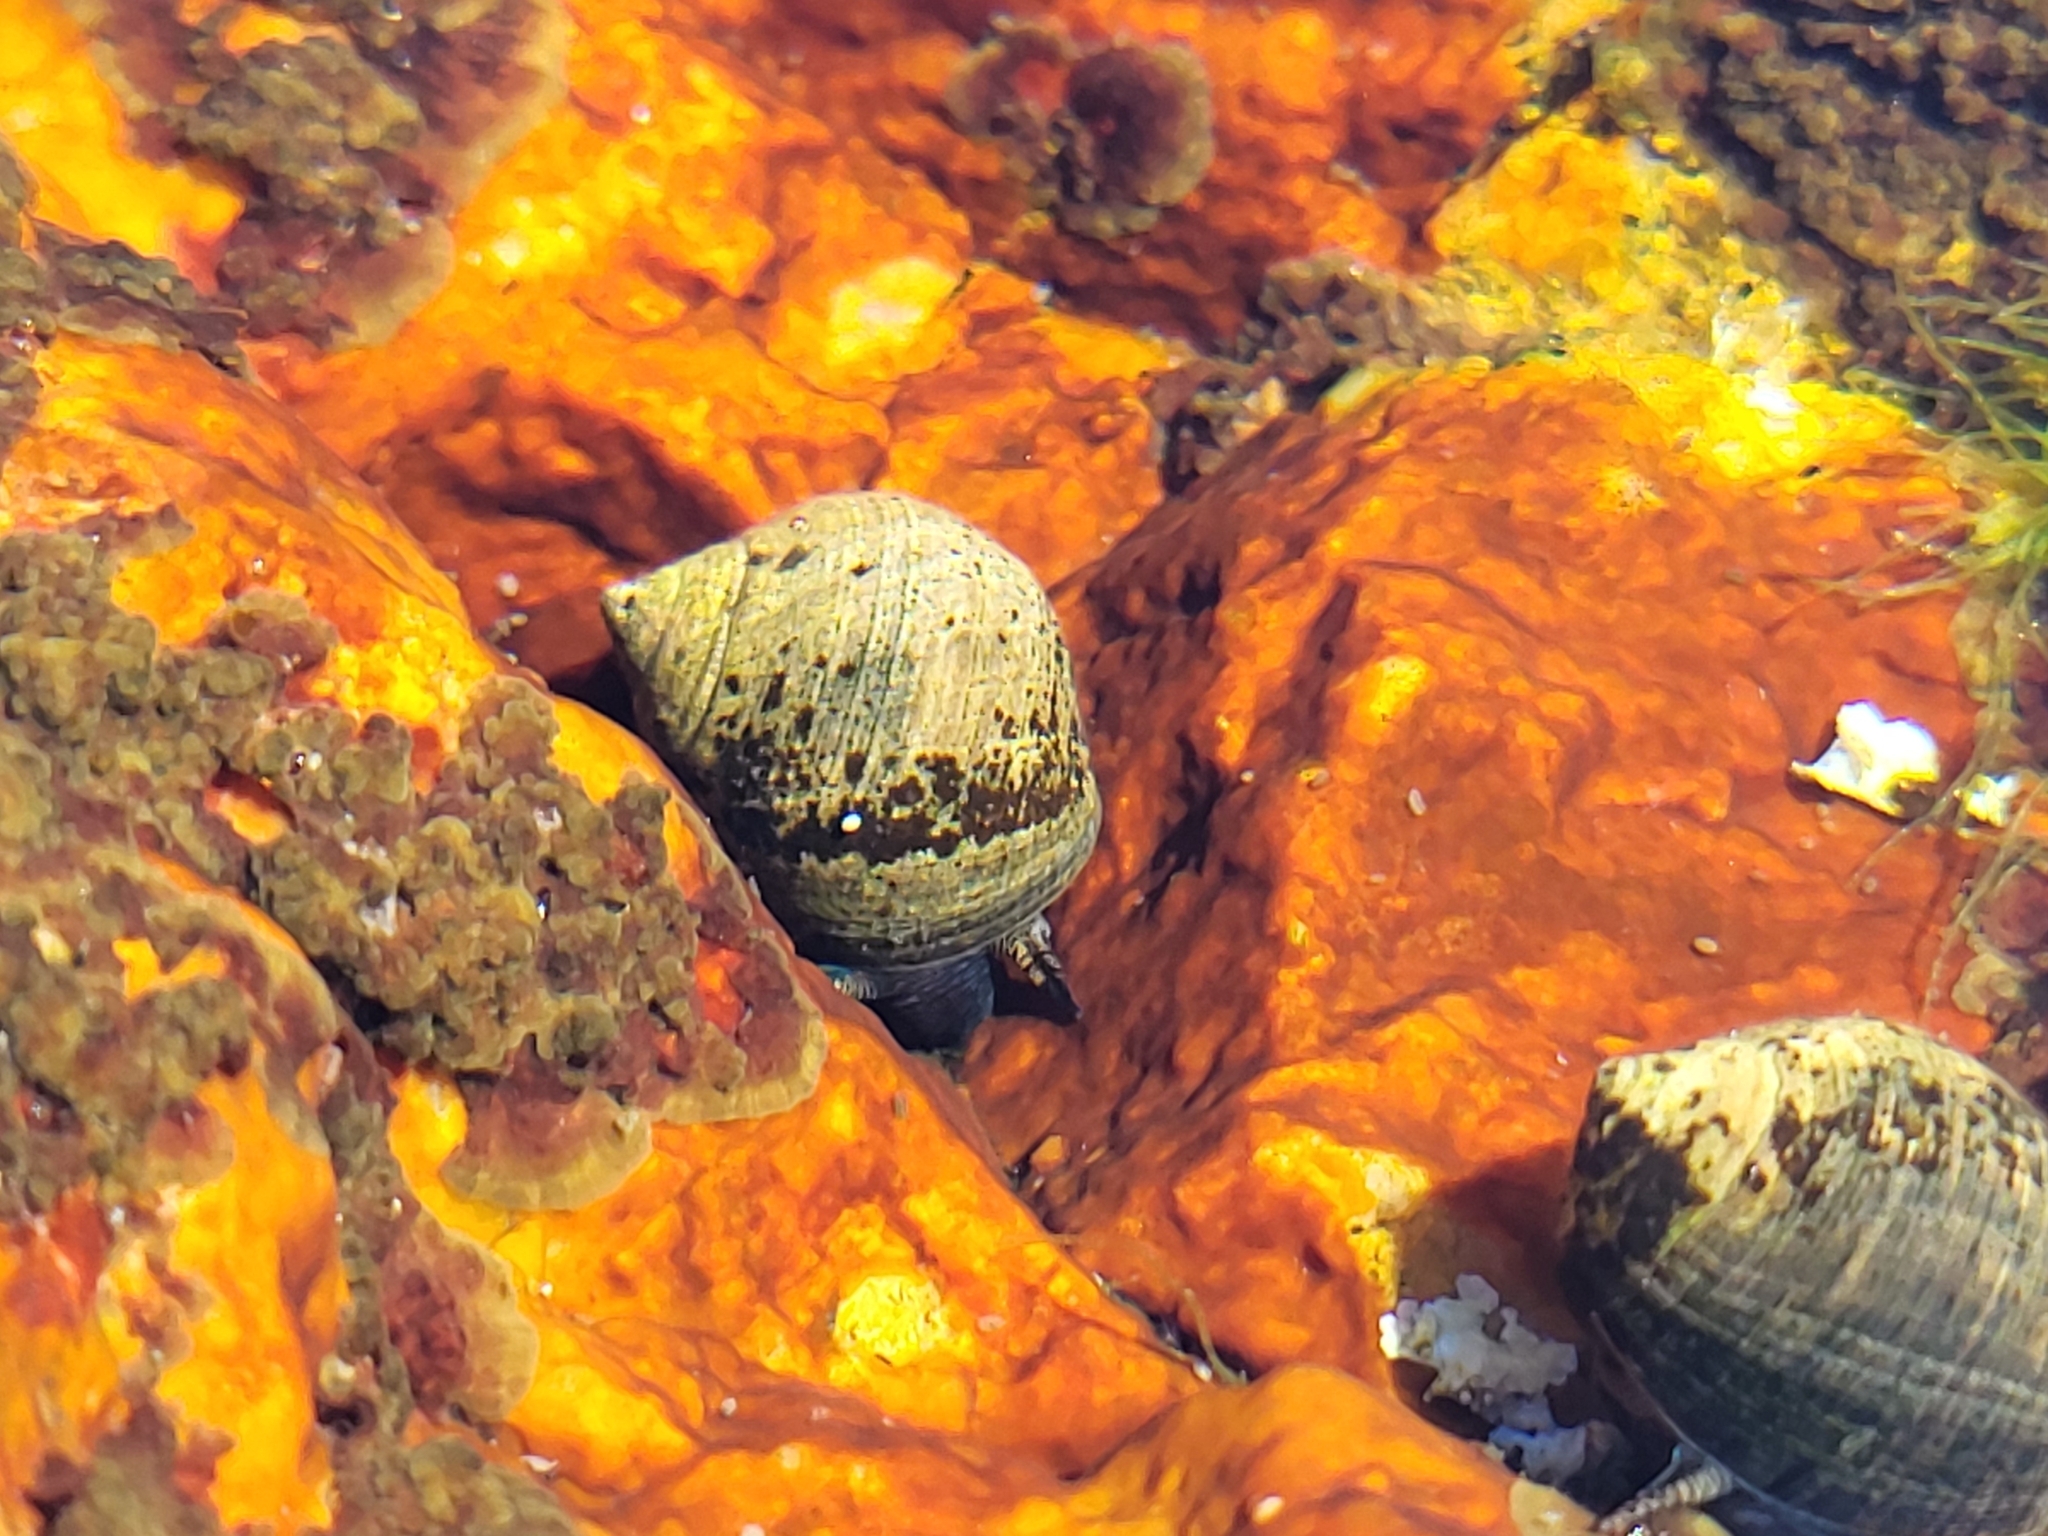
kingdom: Animalia
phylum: Mollusca
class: Gastropoda
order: Littorinimorpha
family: Littorinidae
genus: Littorina
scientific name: Littorina littorea
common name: Common periwinkle
